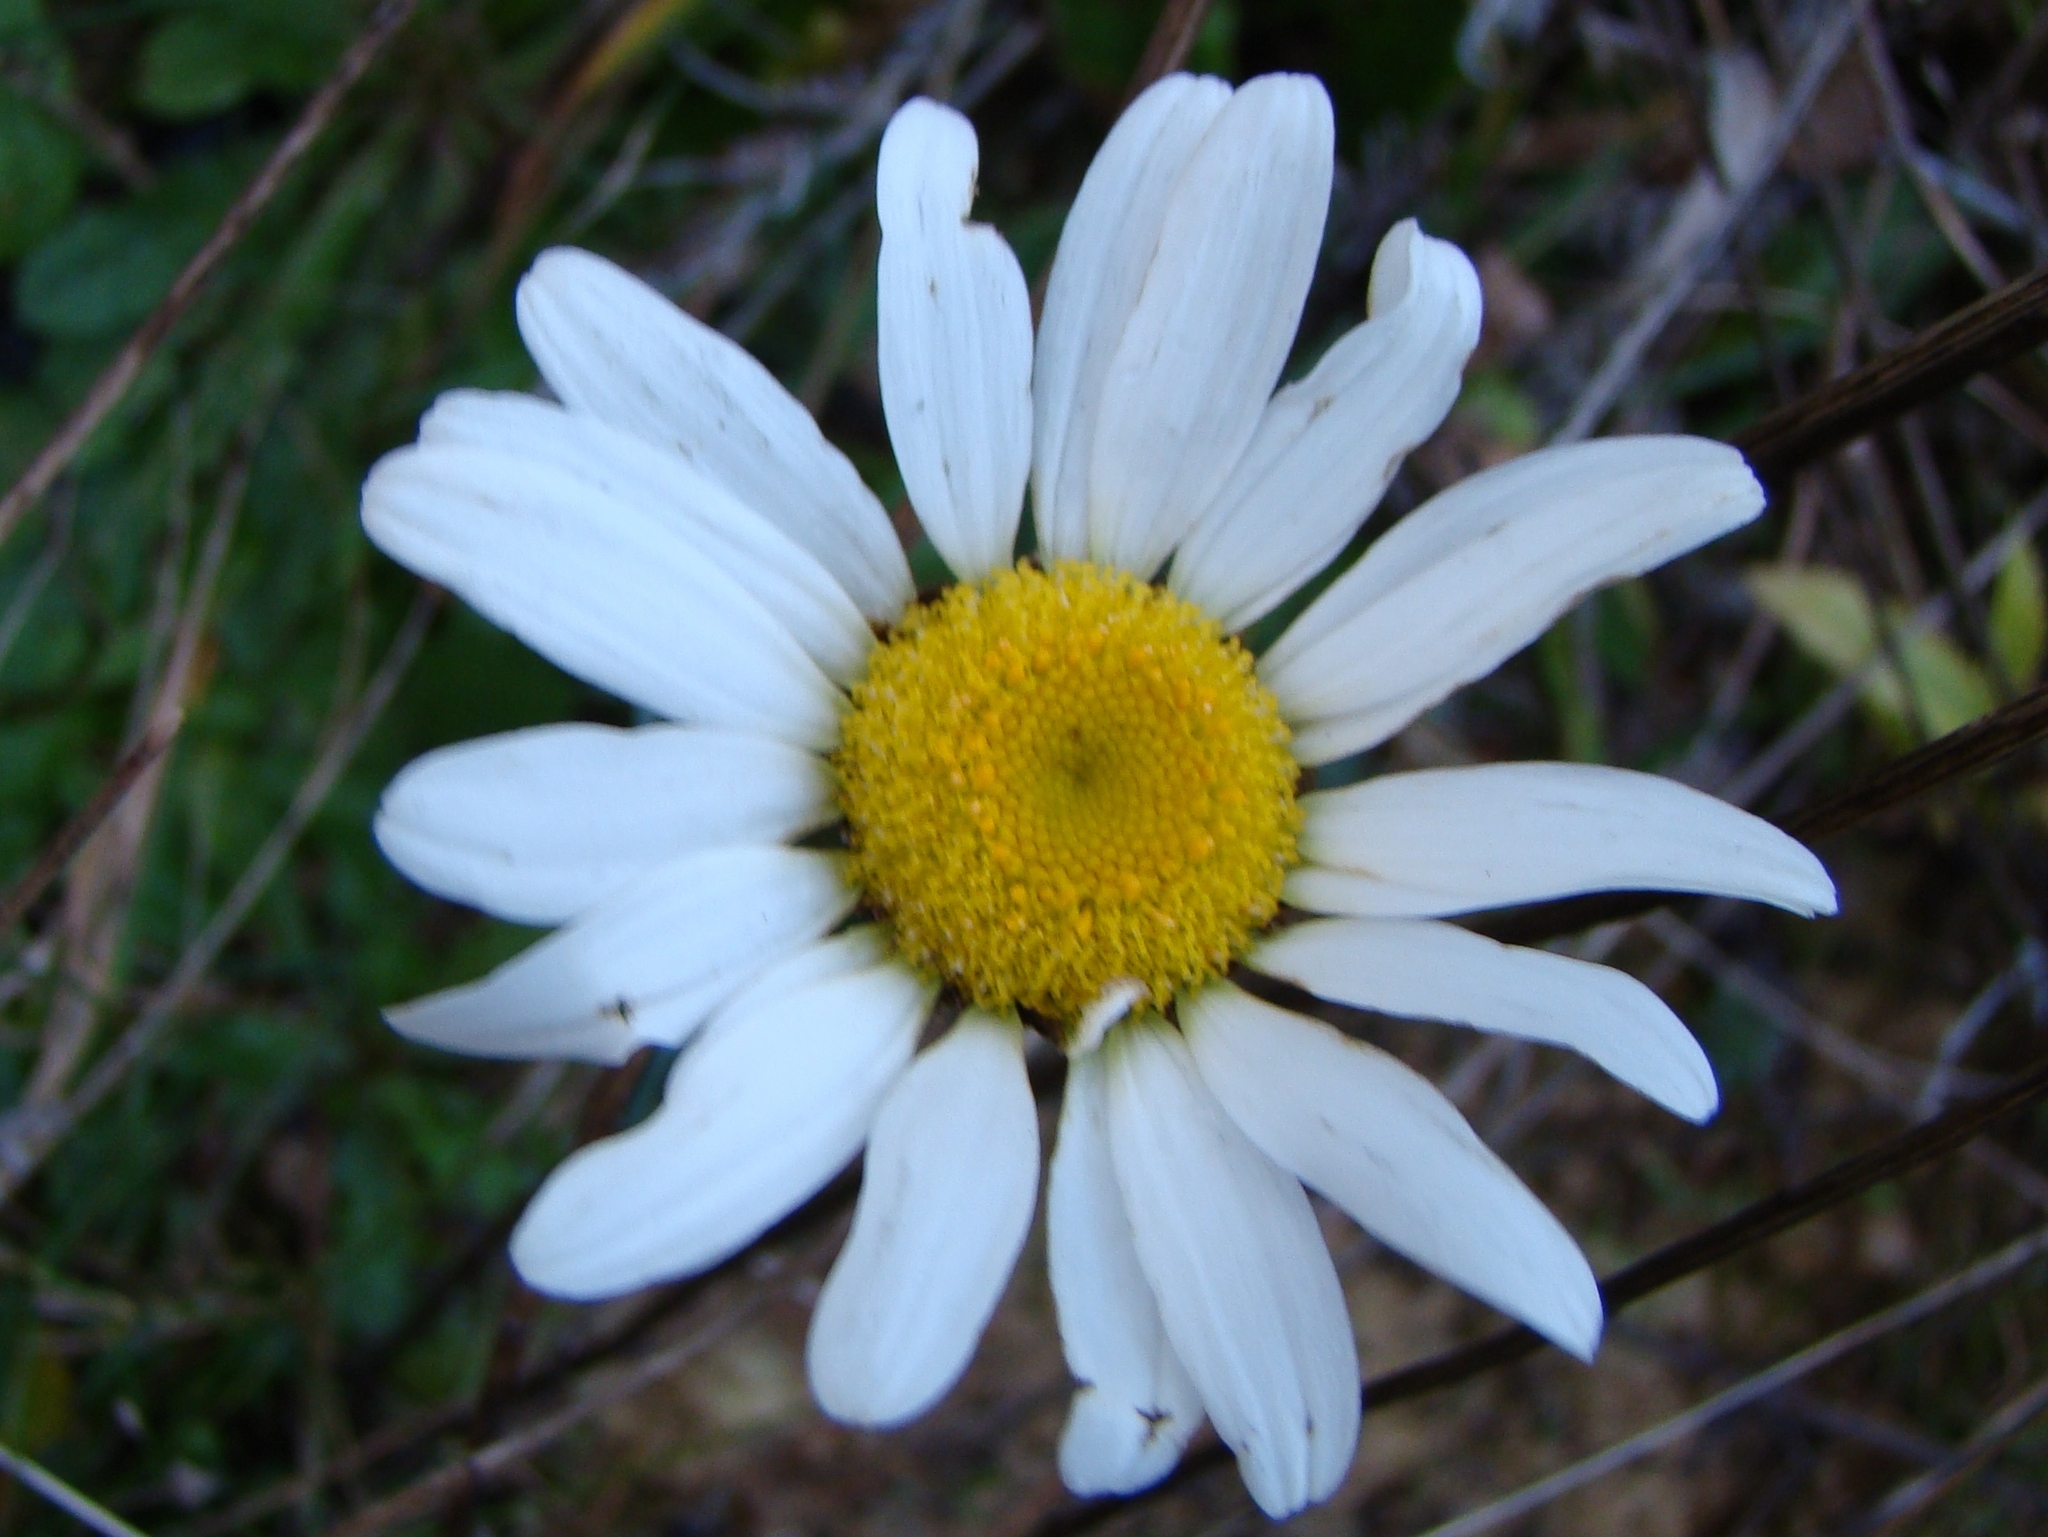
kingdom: Plantae
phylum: Tracheophyta
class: Magnoliopsida
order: Asterales
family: Asteraceae
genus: Leucanthemum
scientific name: Leucanthemum vulgare
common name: Oxeye daisy
